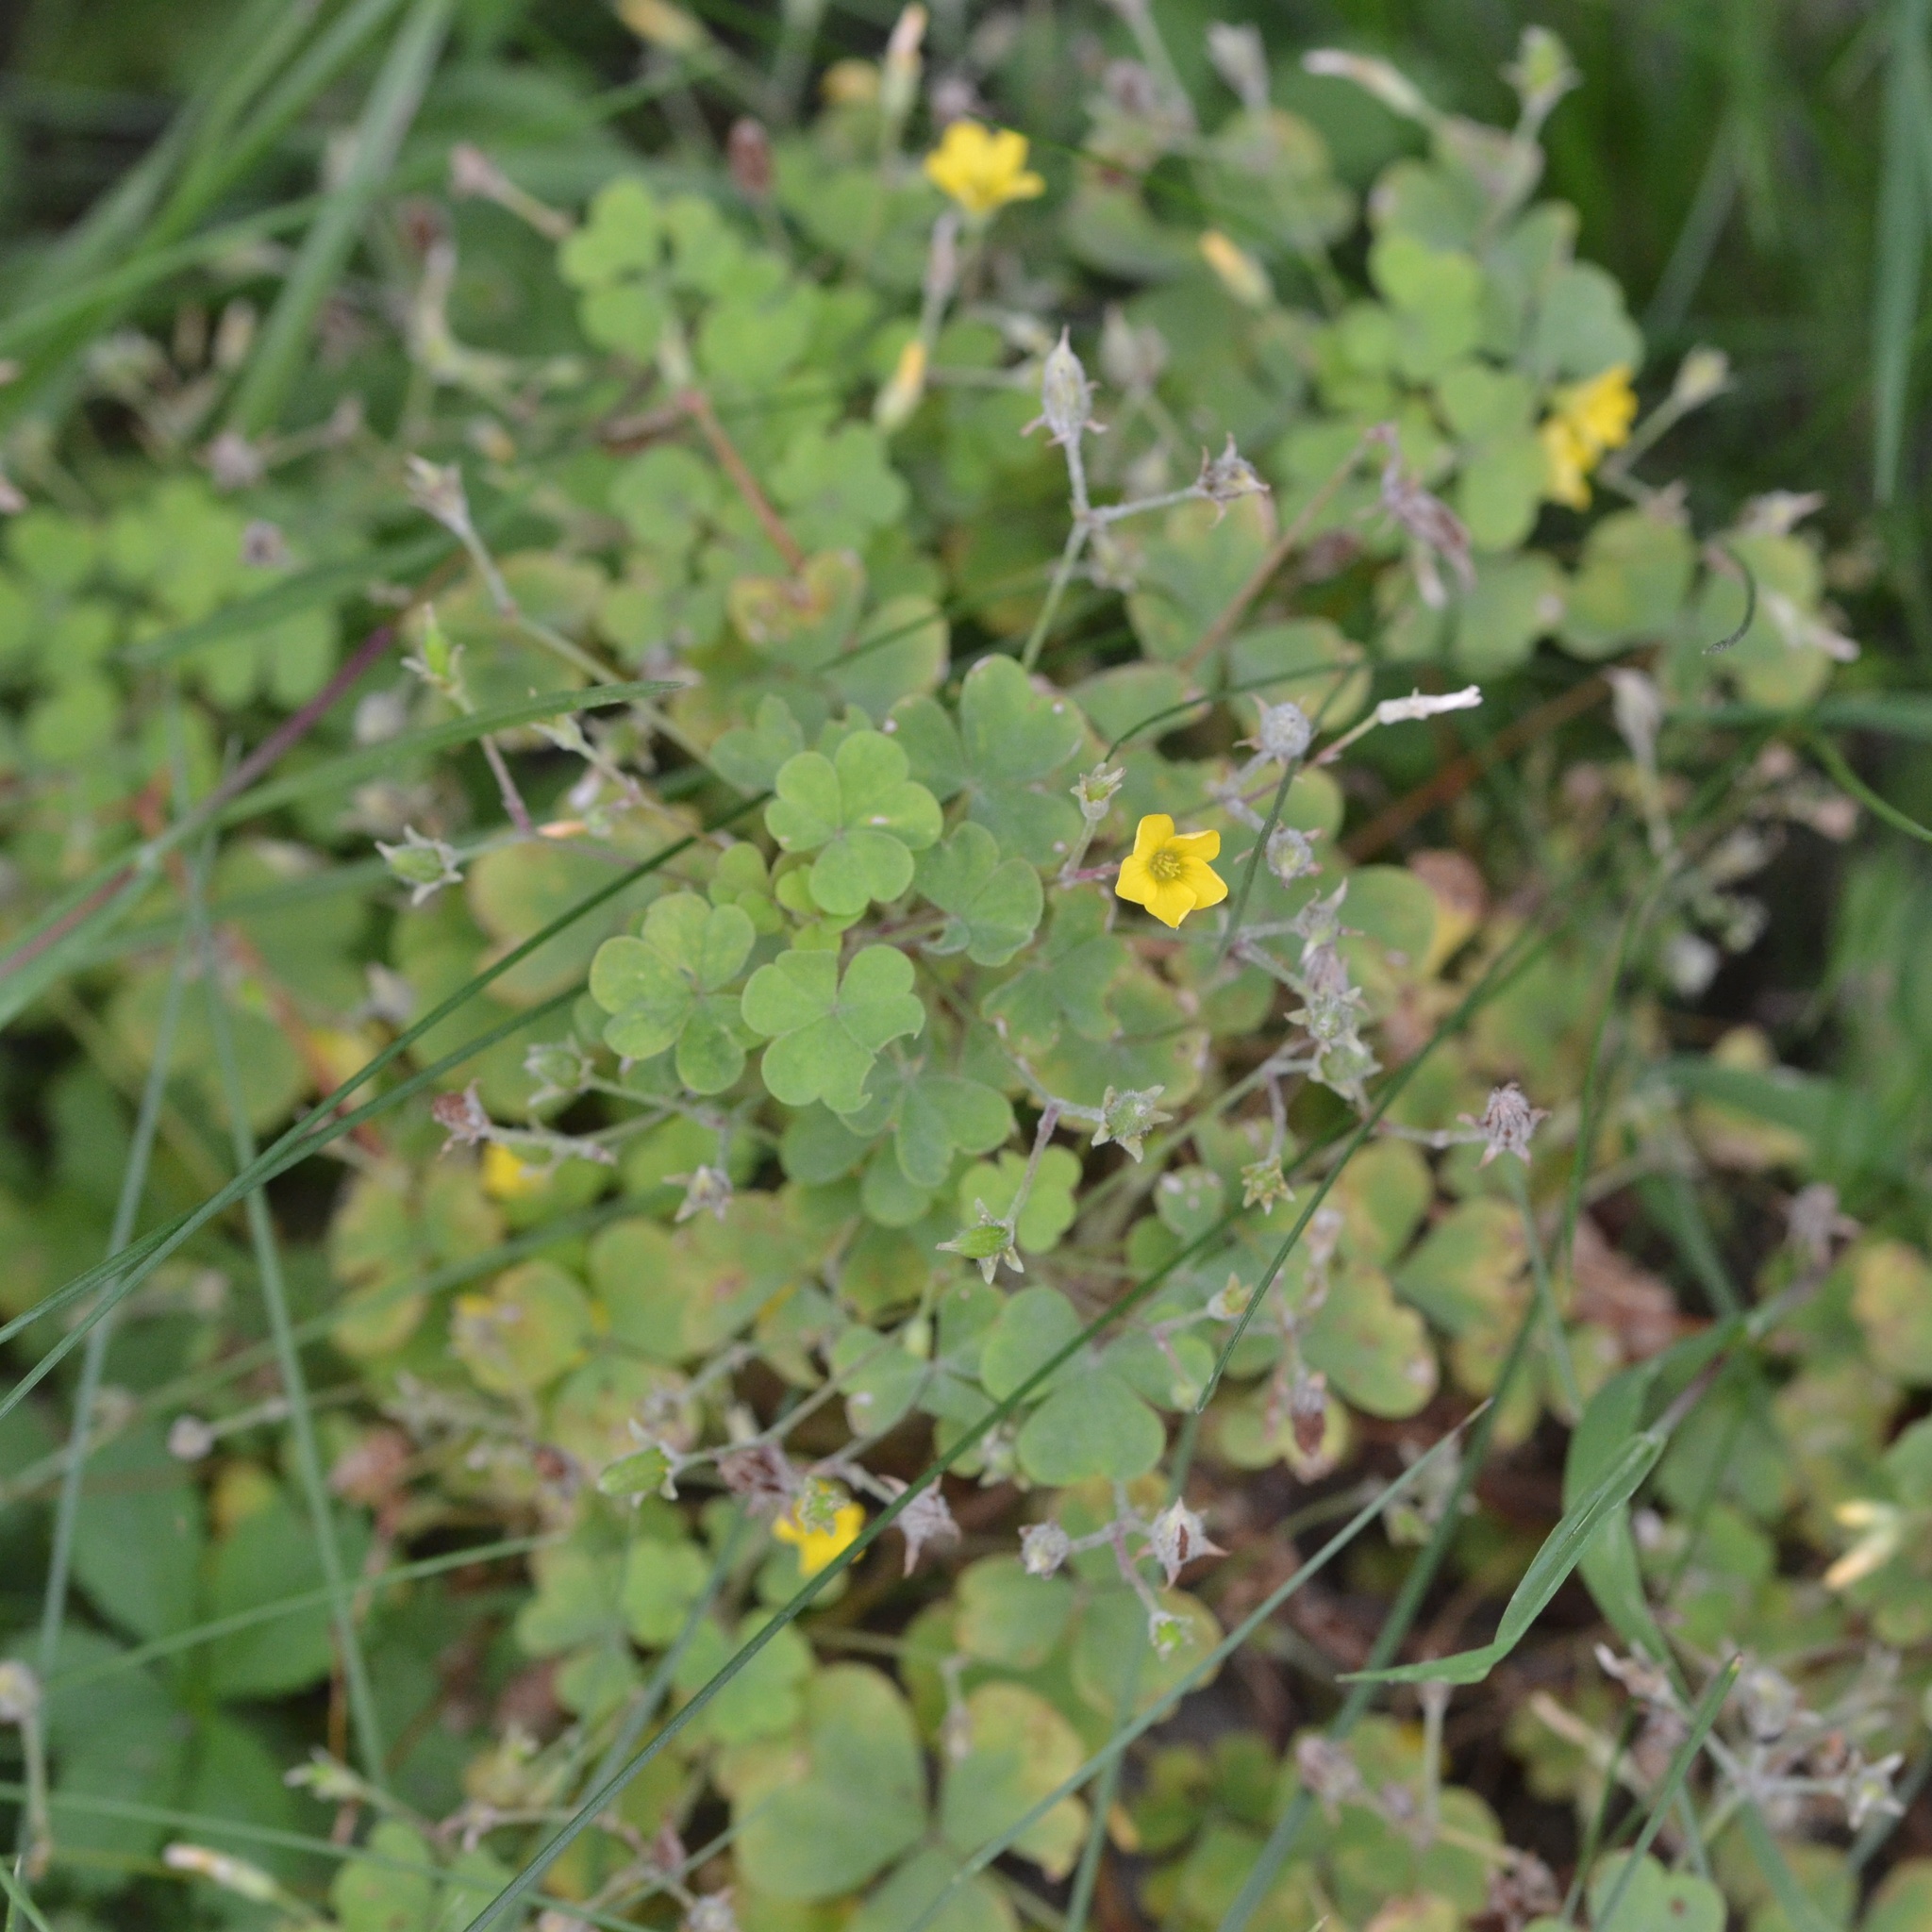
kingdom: Plantae
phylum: Tracheophyta
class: Magnoliopsida
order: Oxalidales
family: Oxalidaceae
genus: Oxalis
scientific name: Oxalis stricta
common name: Upright yellow-sorrel
